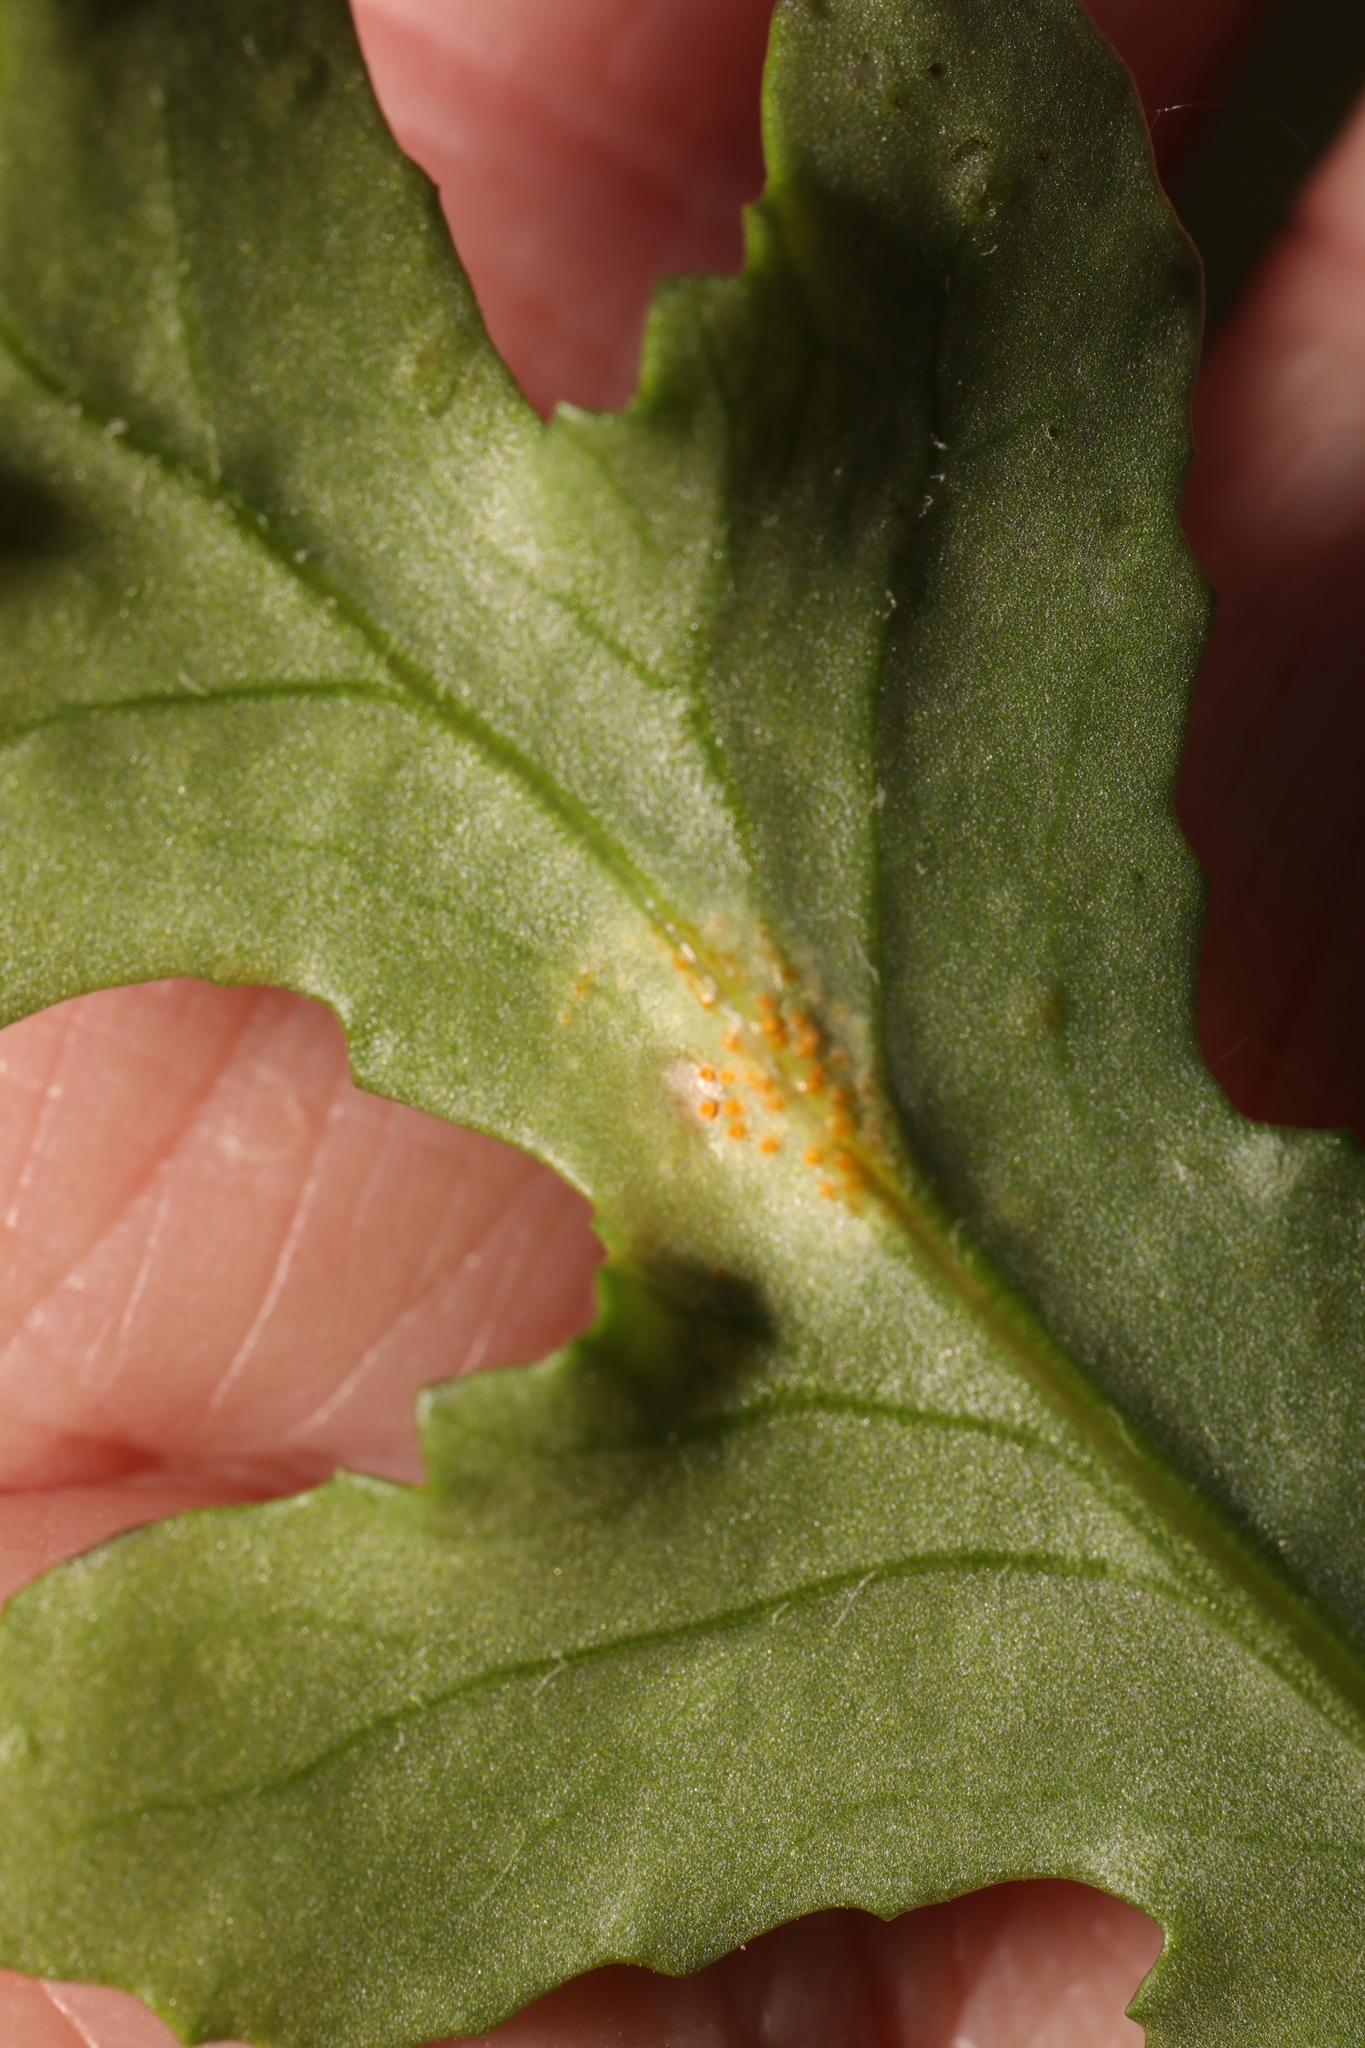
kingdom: Fungi
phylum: Basidiomycota
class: Pucciniomycetes
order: Pucciniales
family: Pucciniaceae
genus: Puccinia
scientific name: Puccinia lagenophorae
